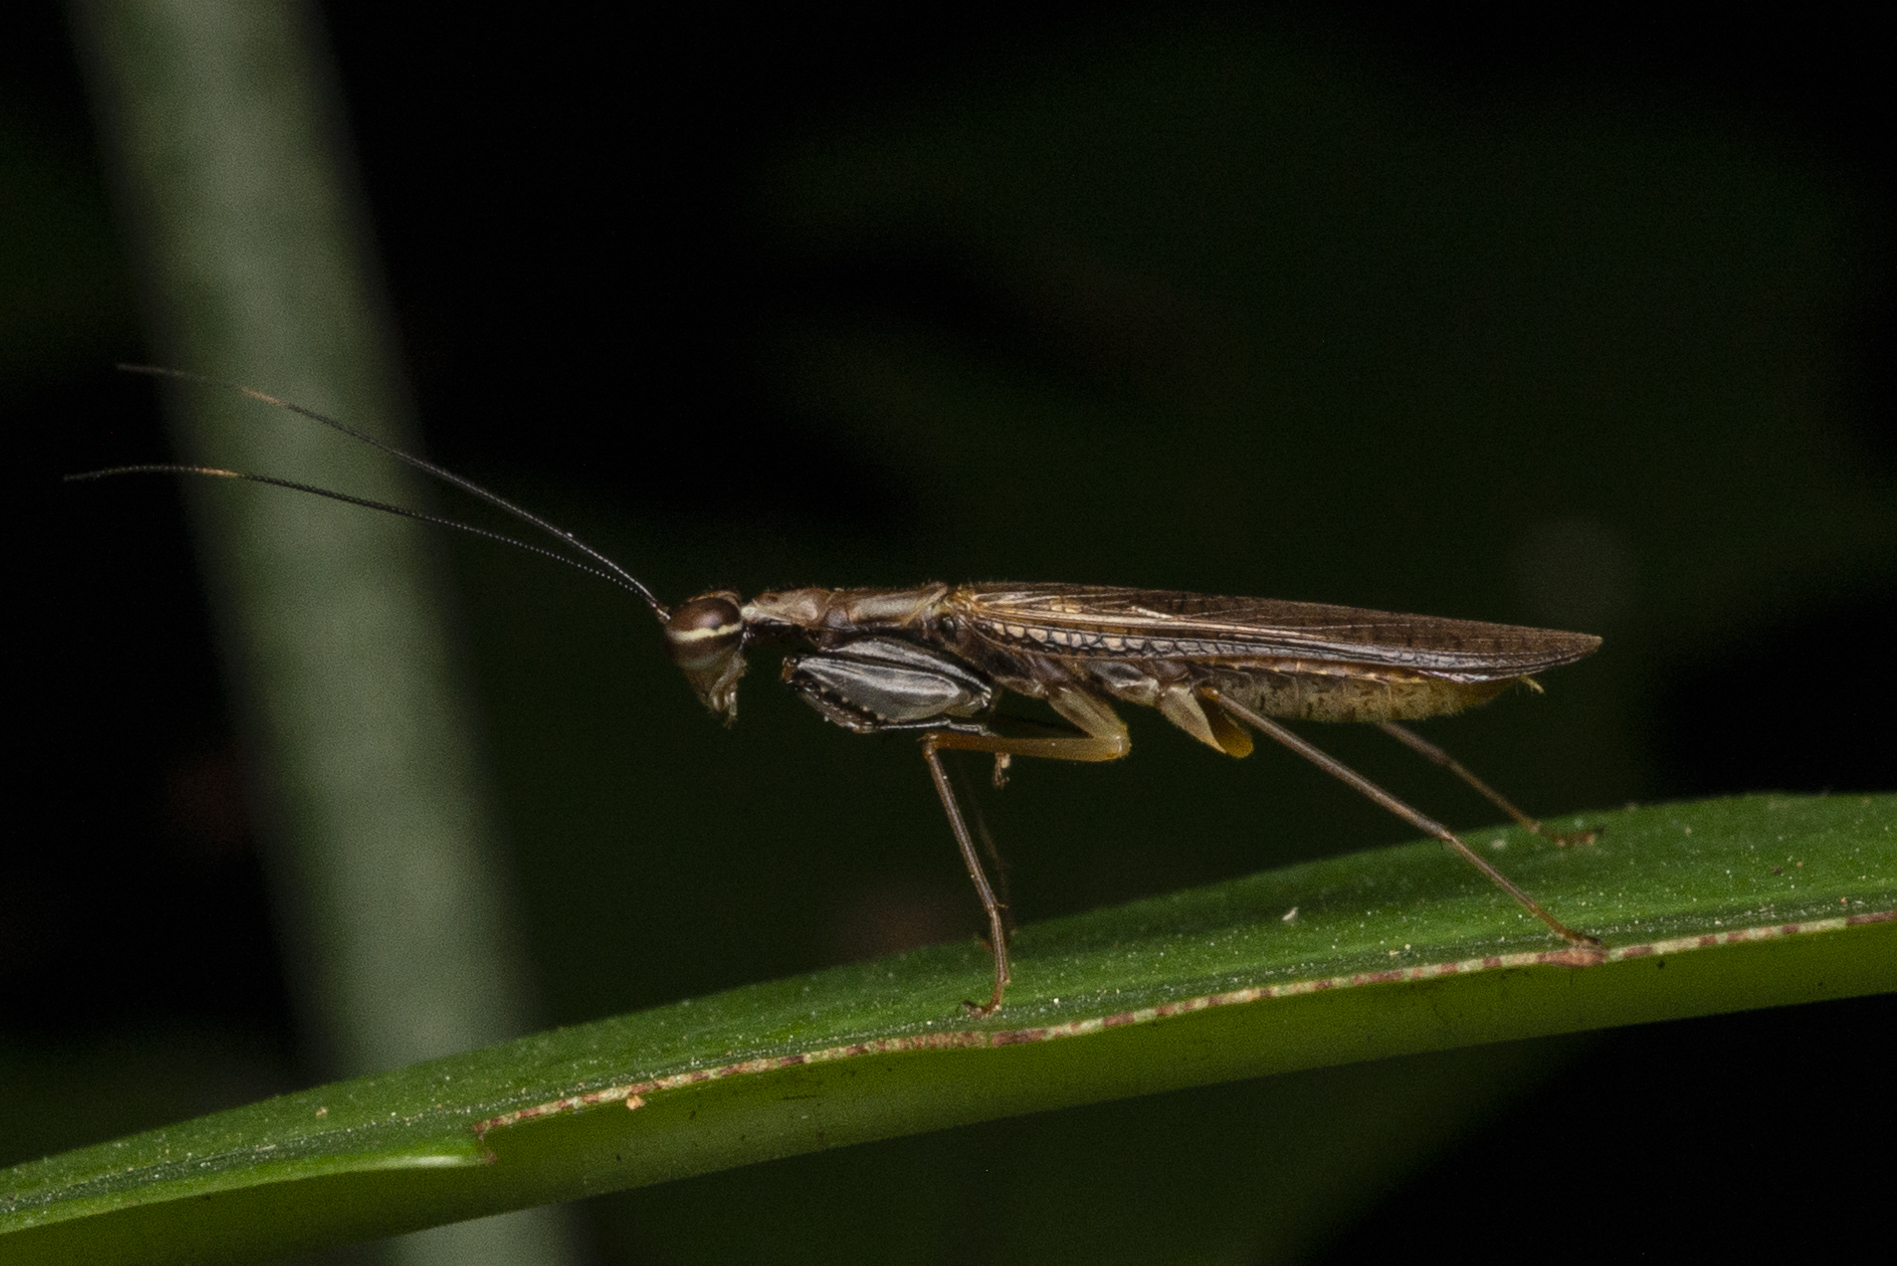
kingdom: Animalia
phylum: Arthropoda
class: Insecta
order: Mantodea
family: Gonypetidae
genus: Spilomantis
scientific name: Spilomantis occipitalis
